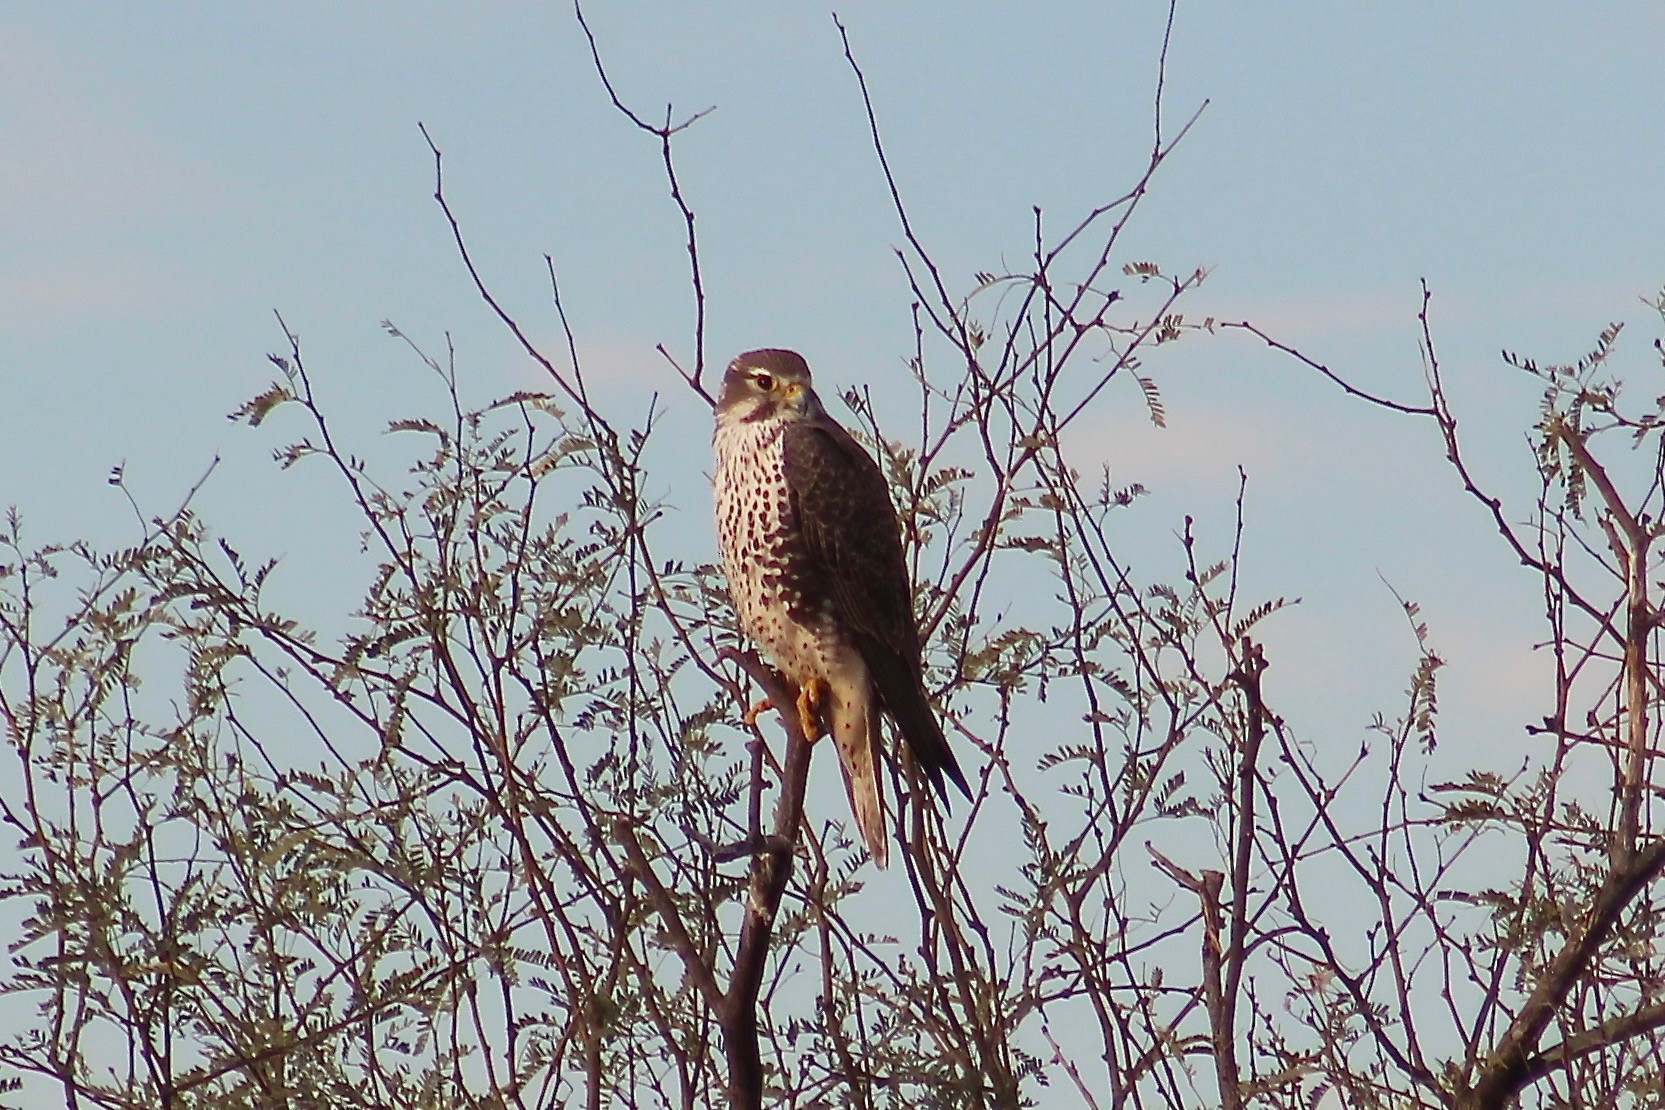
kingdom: Animalia
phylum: Chordata
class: Aves
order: Falconiformes
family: Falconidae
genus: Falco
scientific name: Falco mexicanus
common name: Prairie falcon
